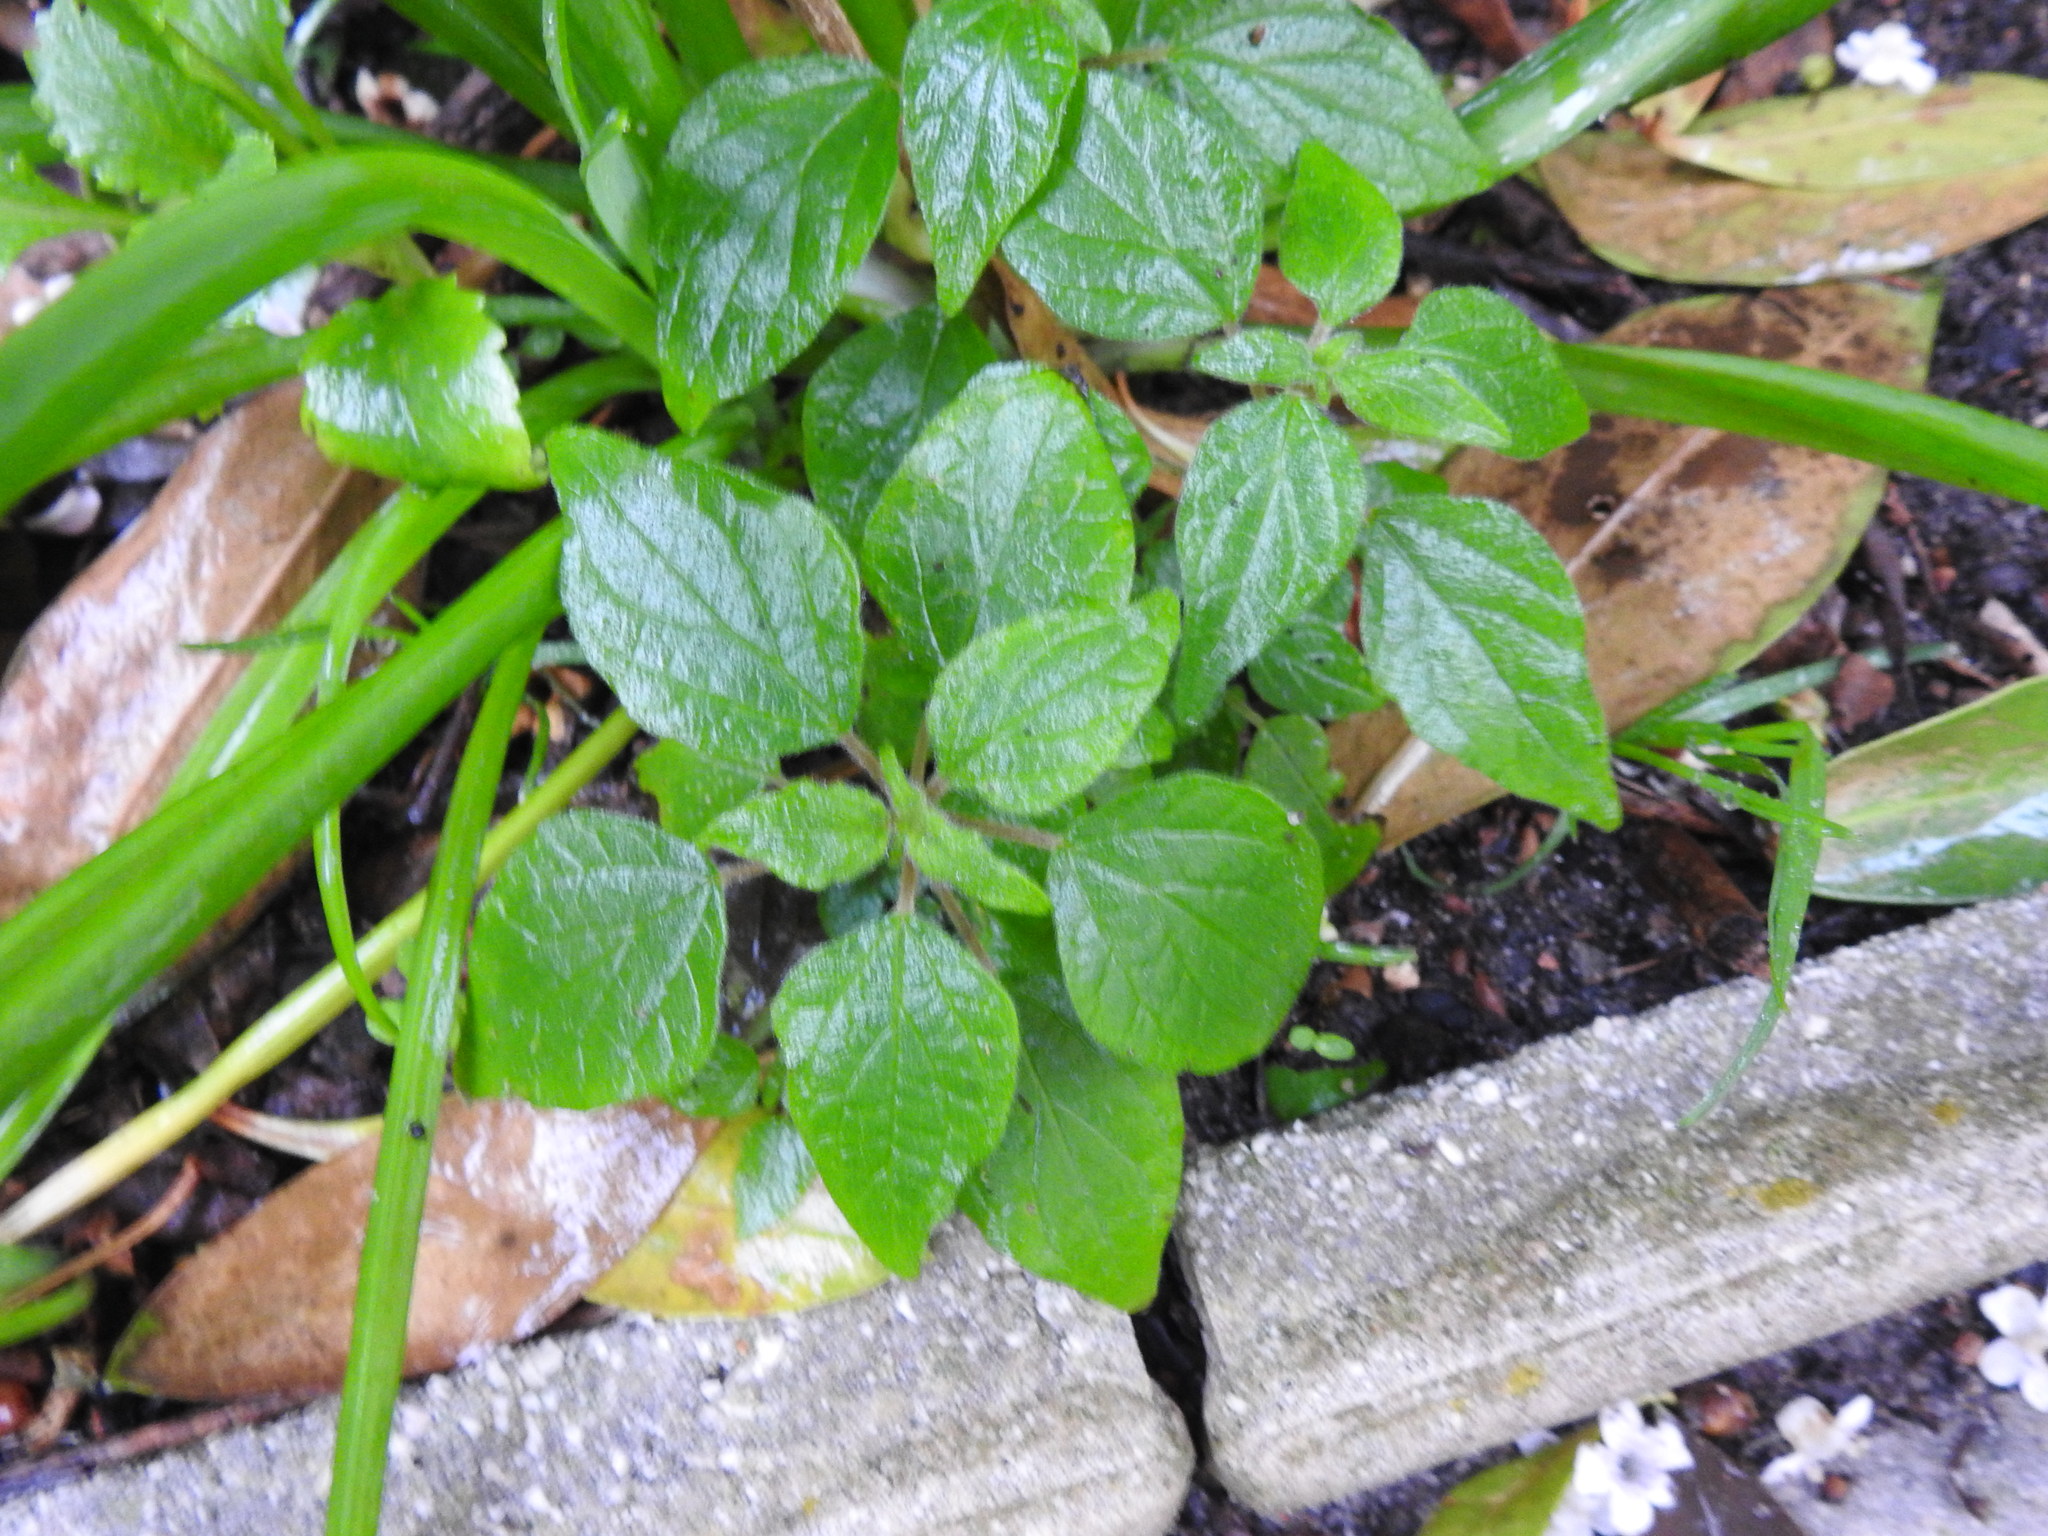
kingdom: Plantae
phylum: Tracheophyta
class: Magnoliopsida
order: Rosales
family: Urticaceae
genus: Parietaria
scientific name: Parietaria judaica
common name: Pellitory-of-the-wall
